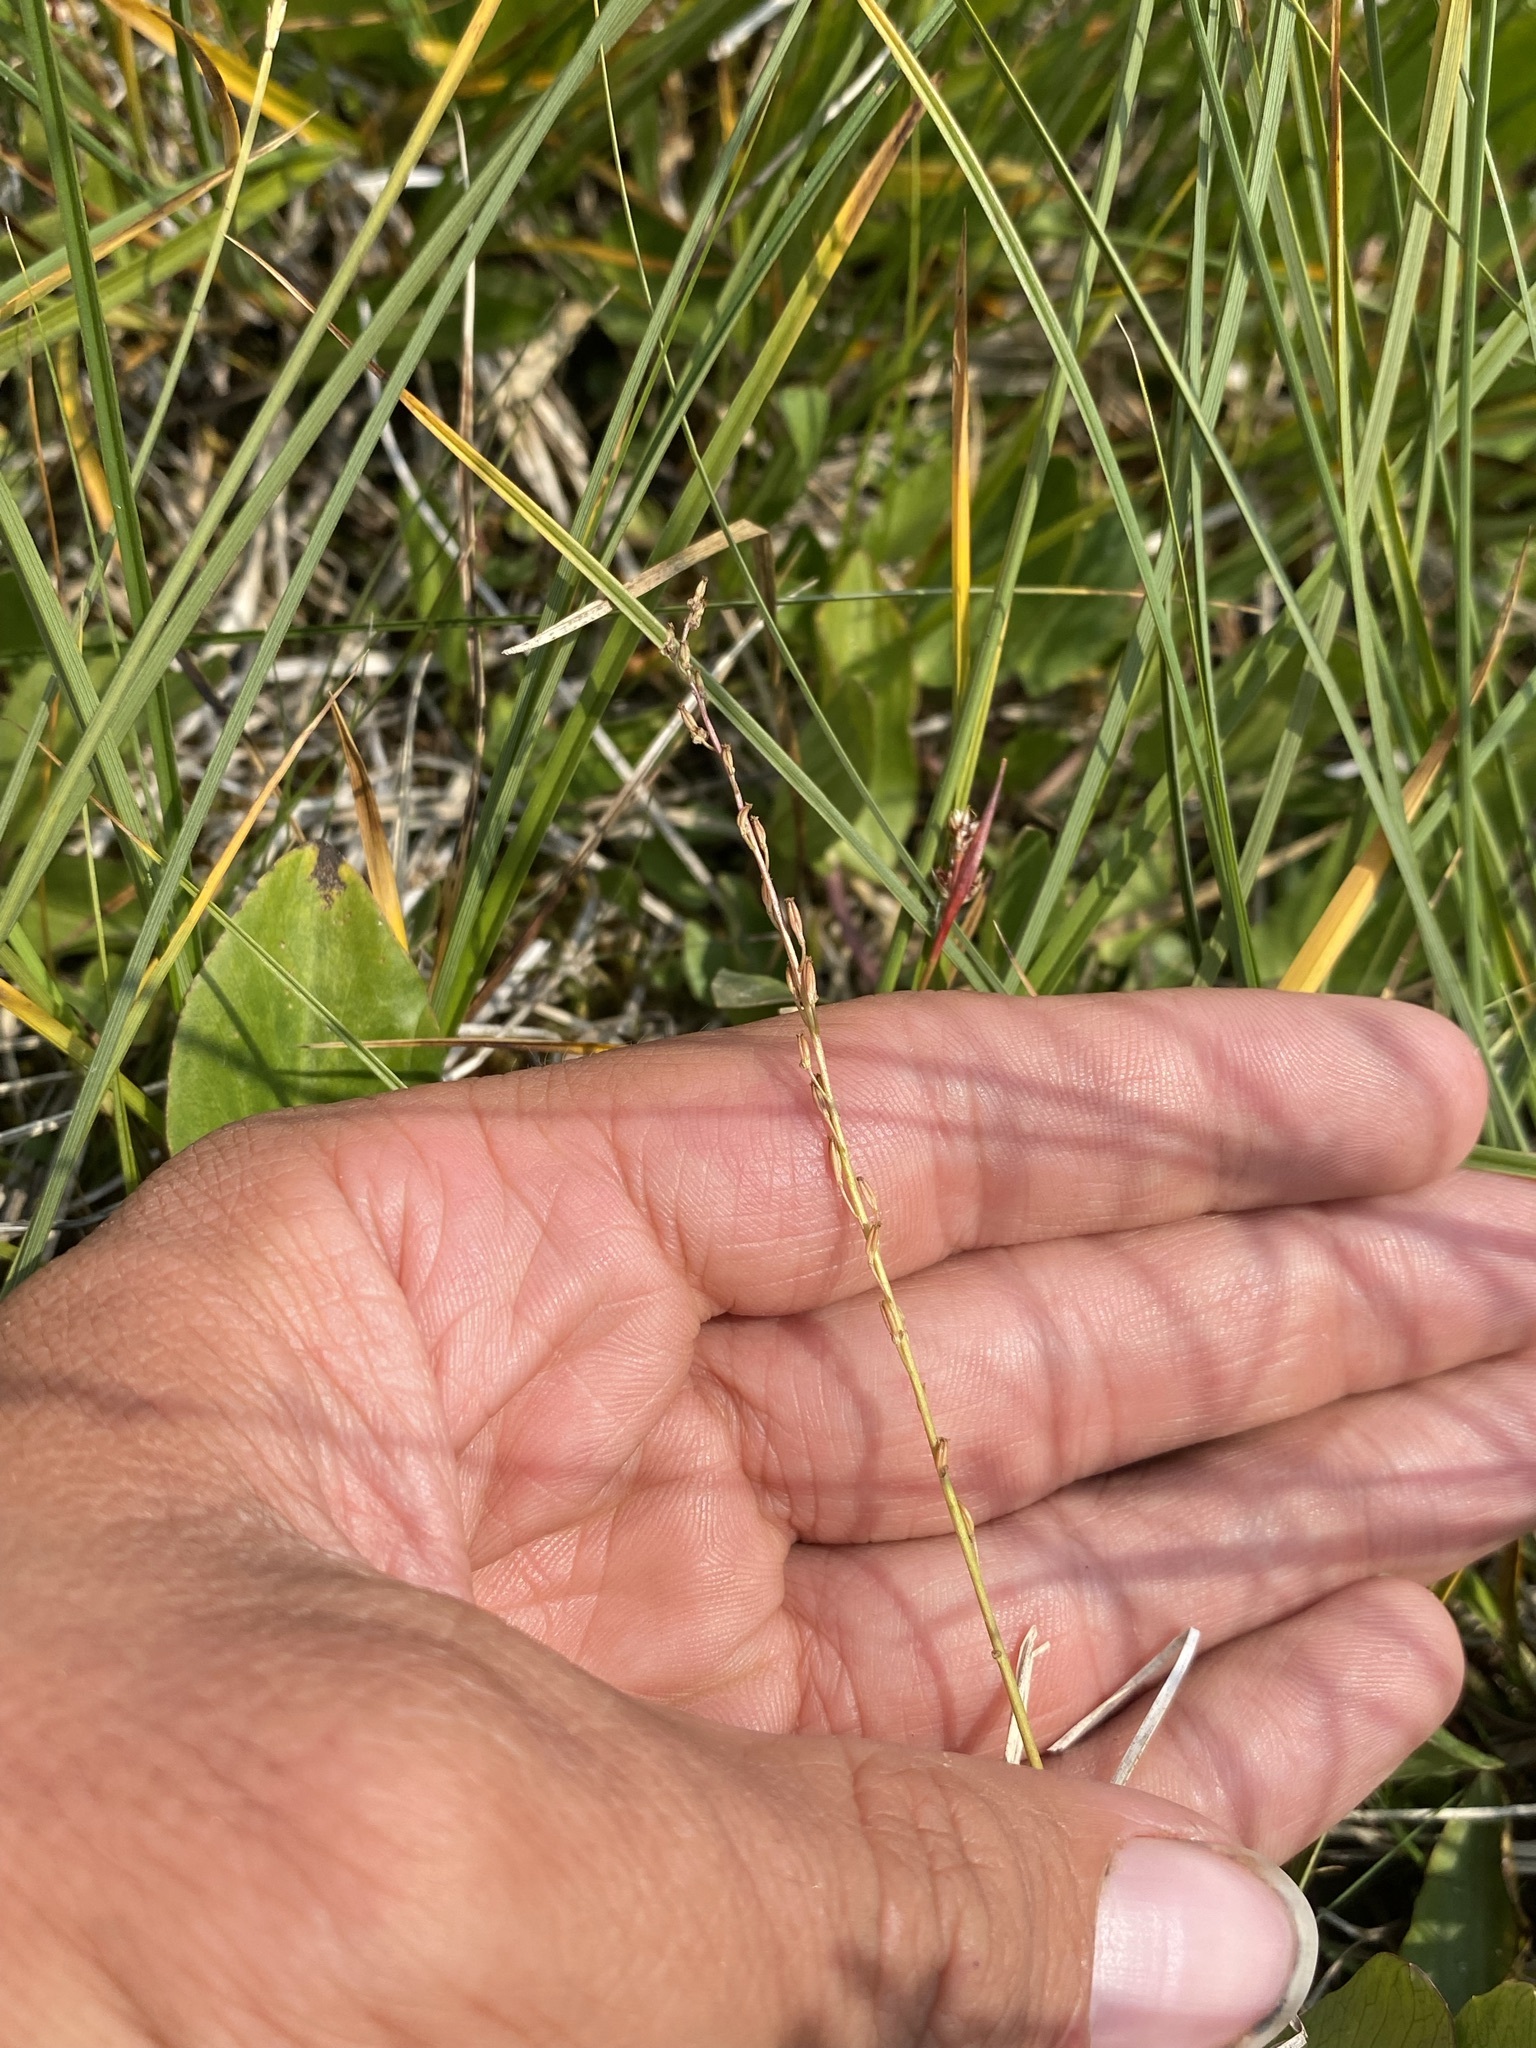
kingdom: Plantae
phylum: Tracheophyta
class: Liliopsida
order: Alismatales
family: Juncaginaceae
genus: Triglochin
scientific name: Triglochin palustris
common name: Marsh arrowgrass
